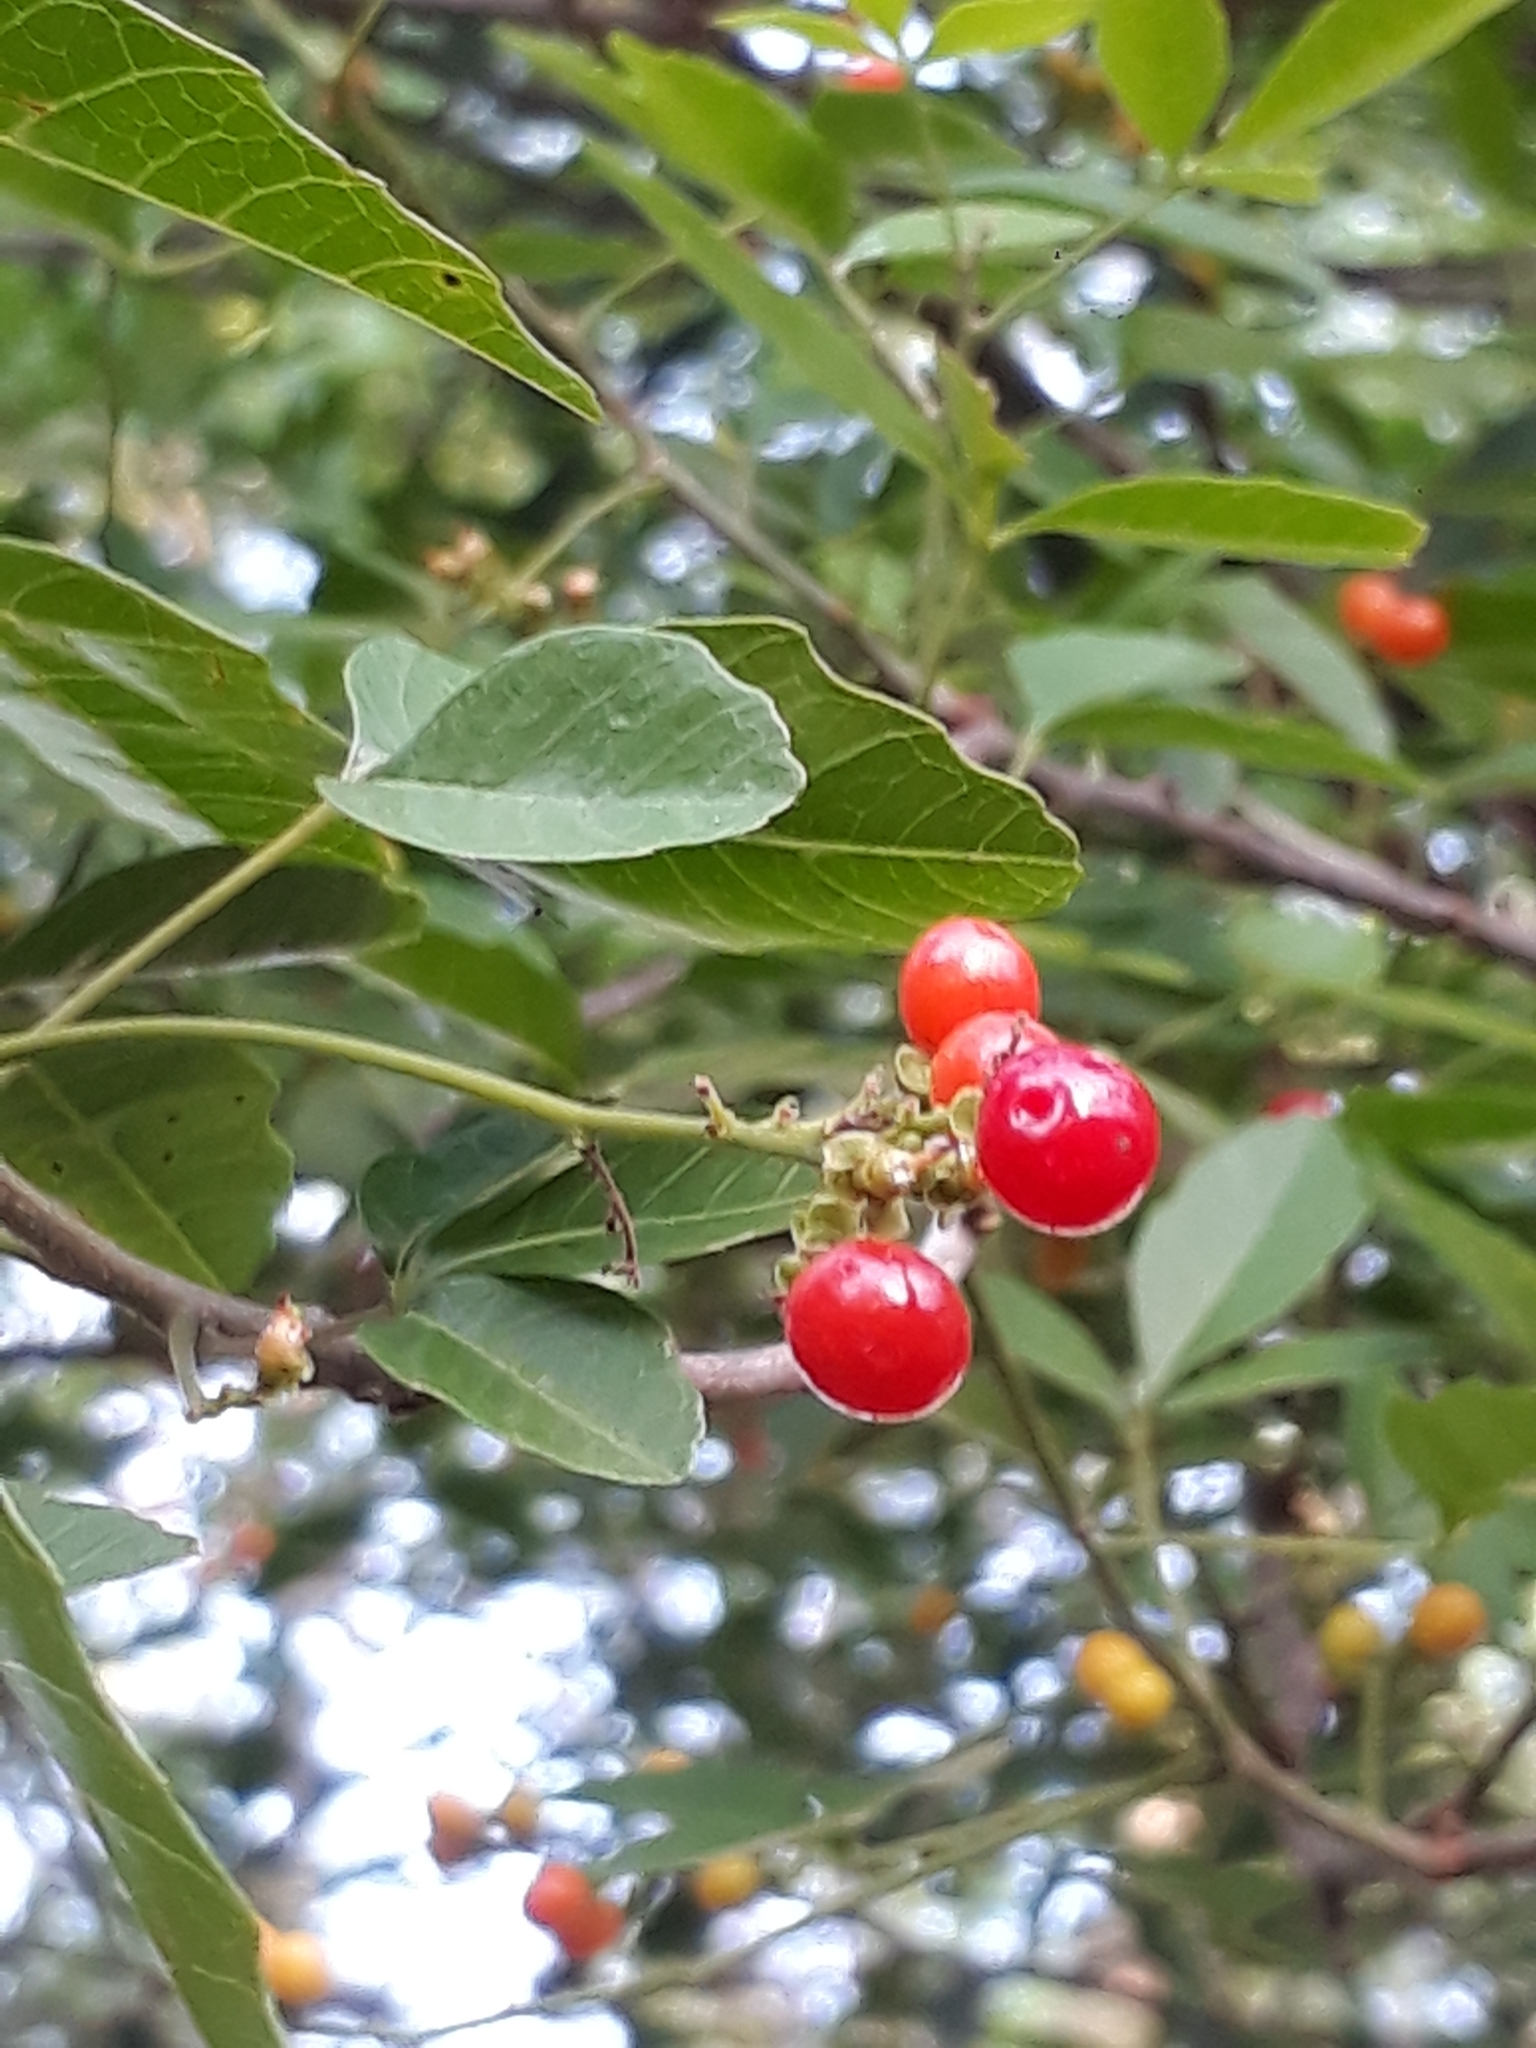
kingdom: Plantae
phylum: Tracheophyta
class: Magnoliopsida
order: Sapindales
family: Sapindaceae
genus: Allophylus
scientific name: Allophylus edulis
